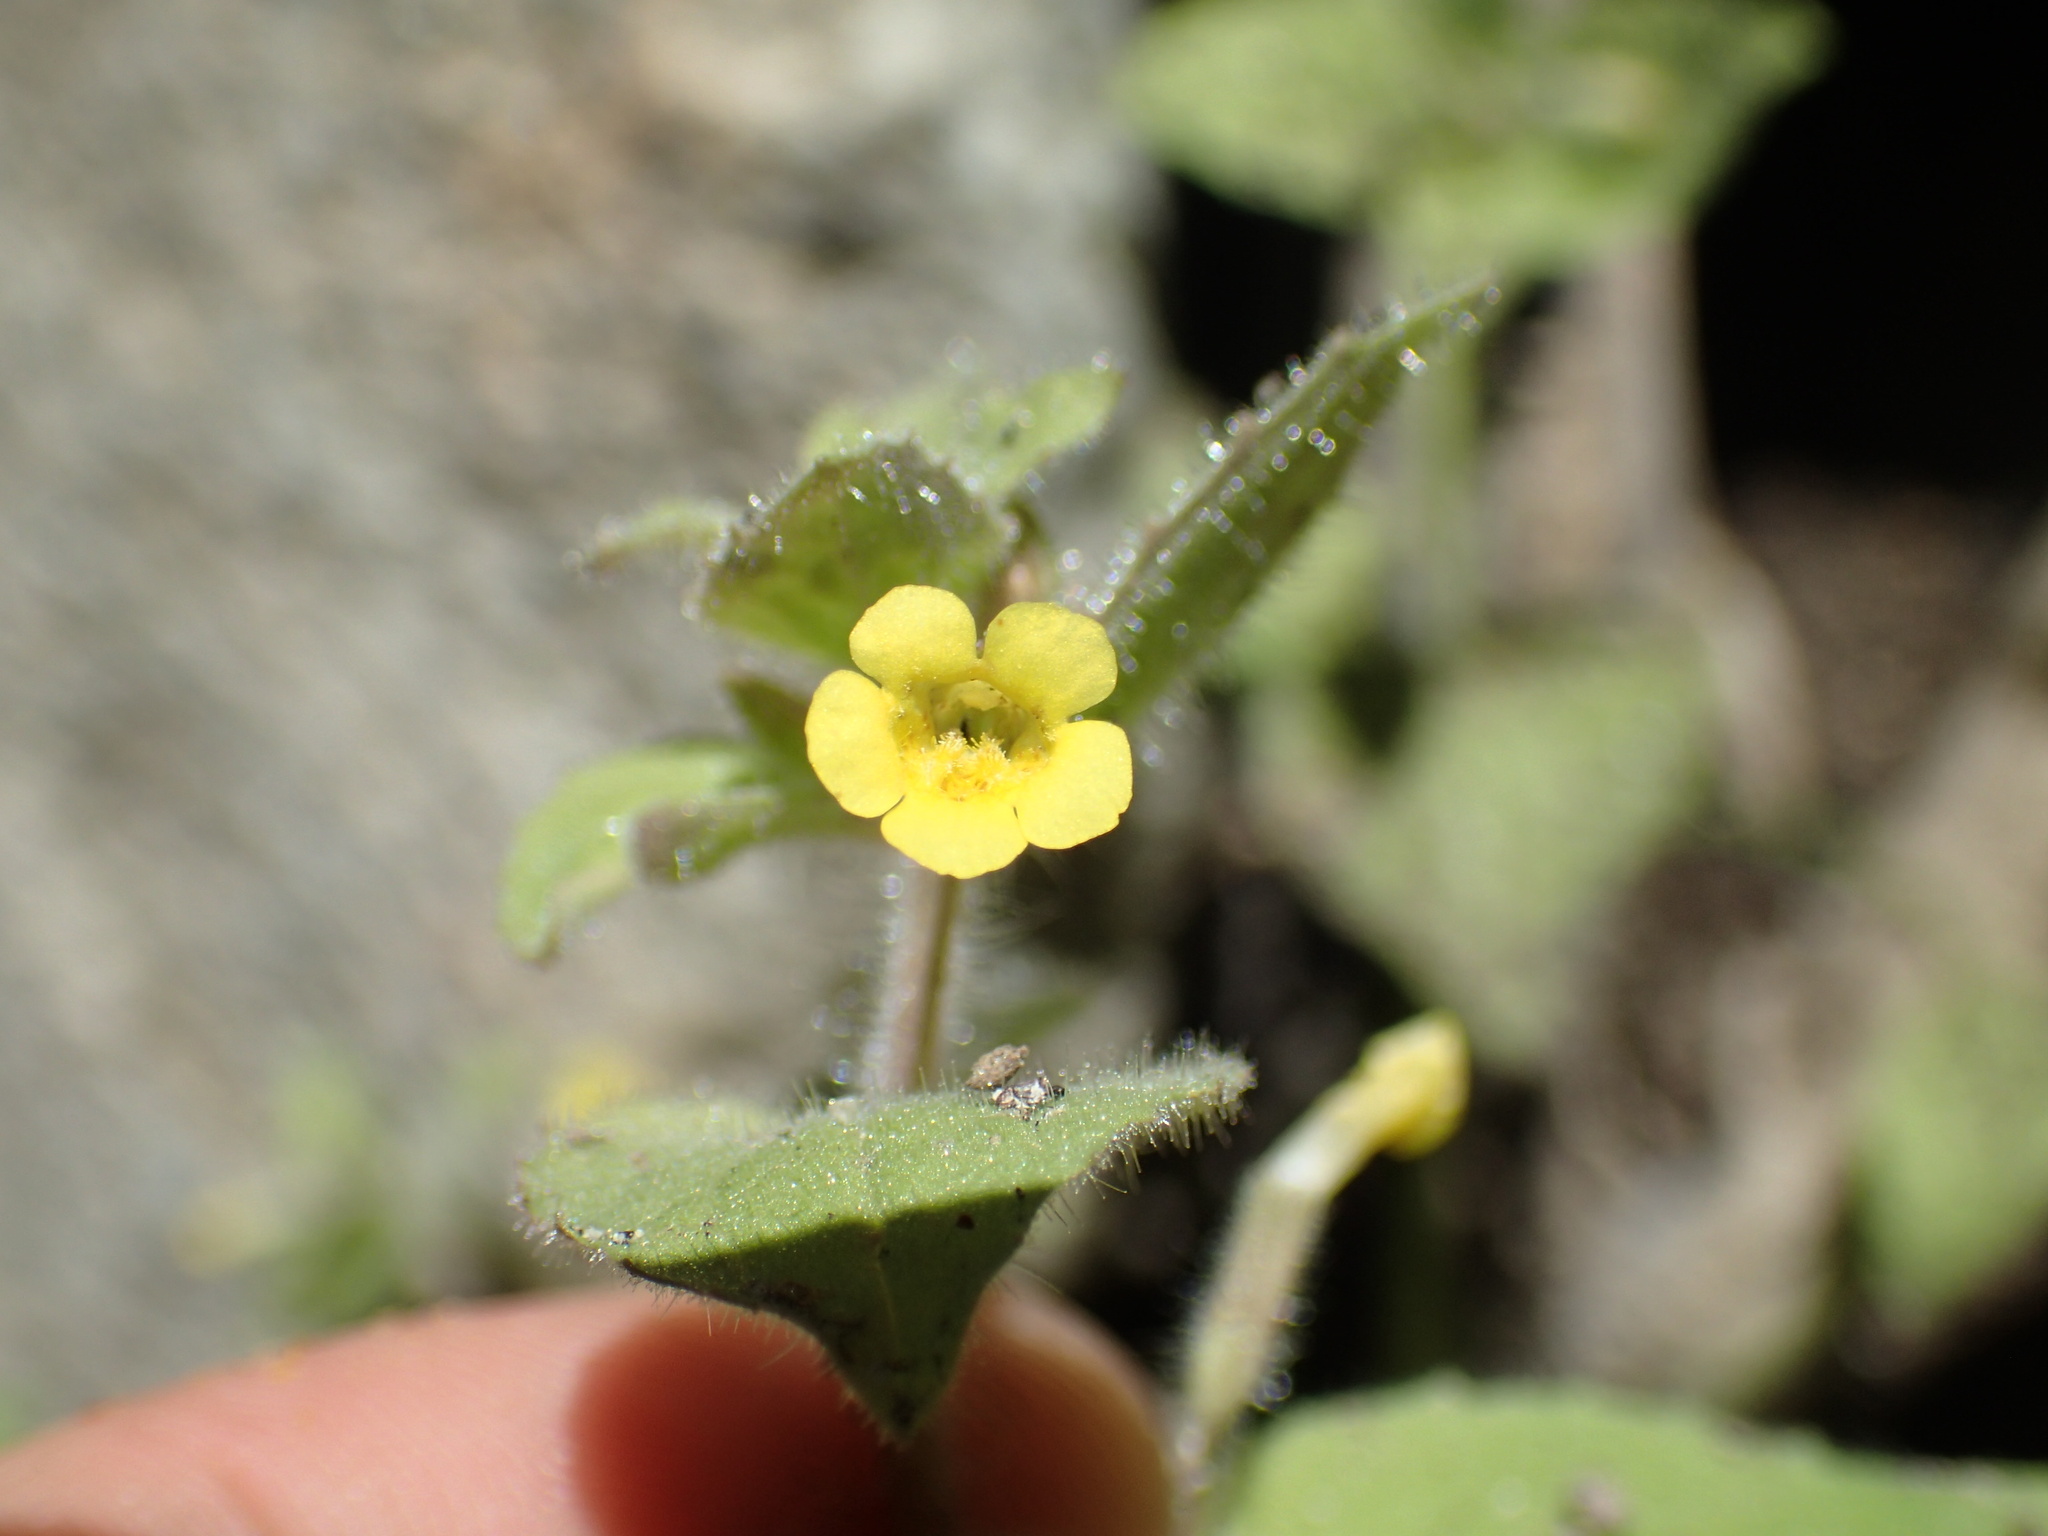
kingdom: Plantae
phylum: Tracheophyta
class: Magnoliopsida
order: Lamiales
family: Phrymaceae
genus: Erythranthe
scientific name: Erythranthe floribunda
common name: Floriferous monkeyflower
